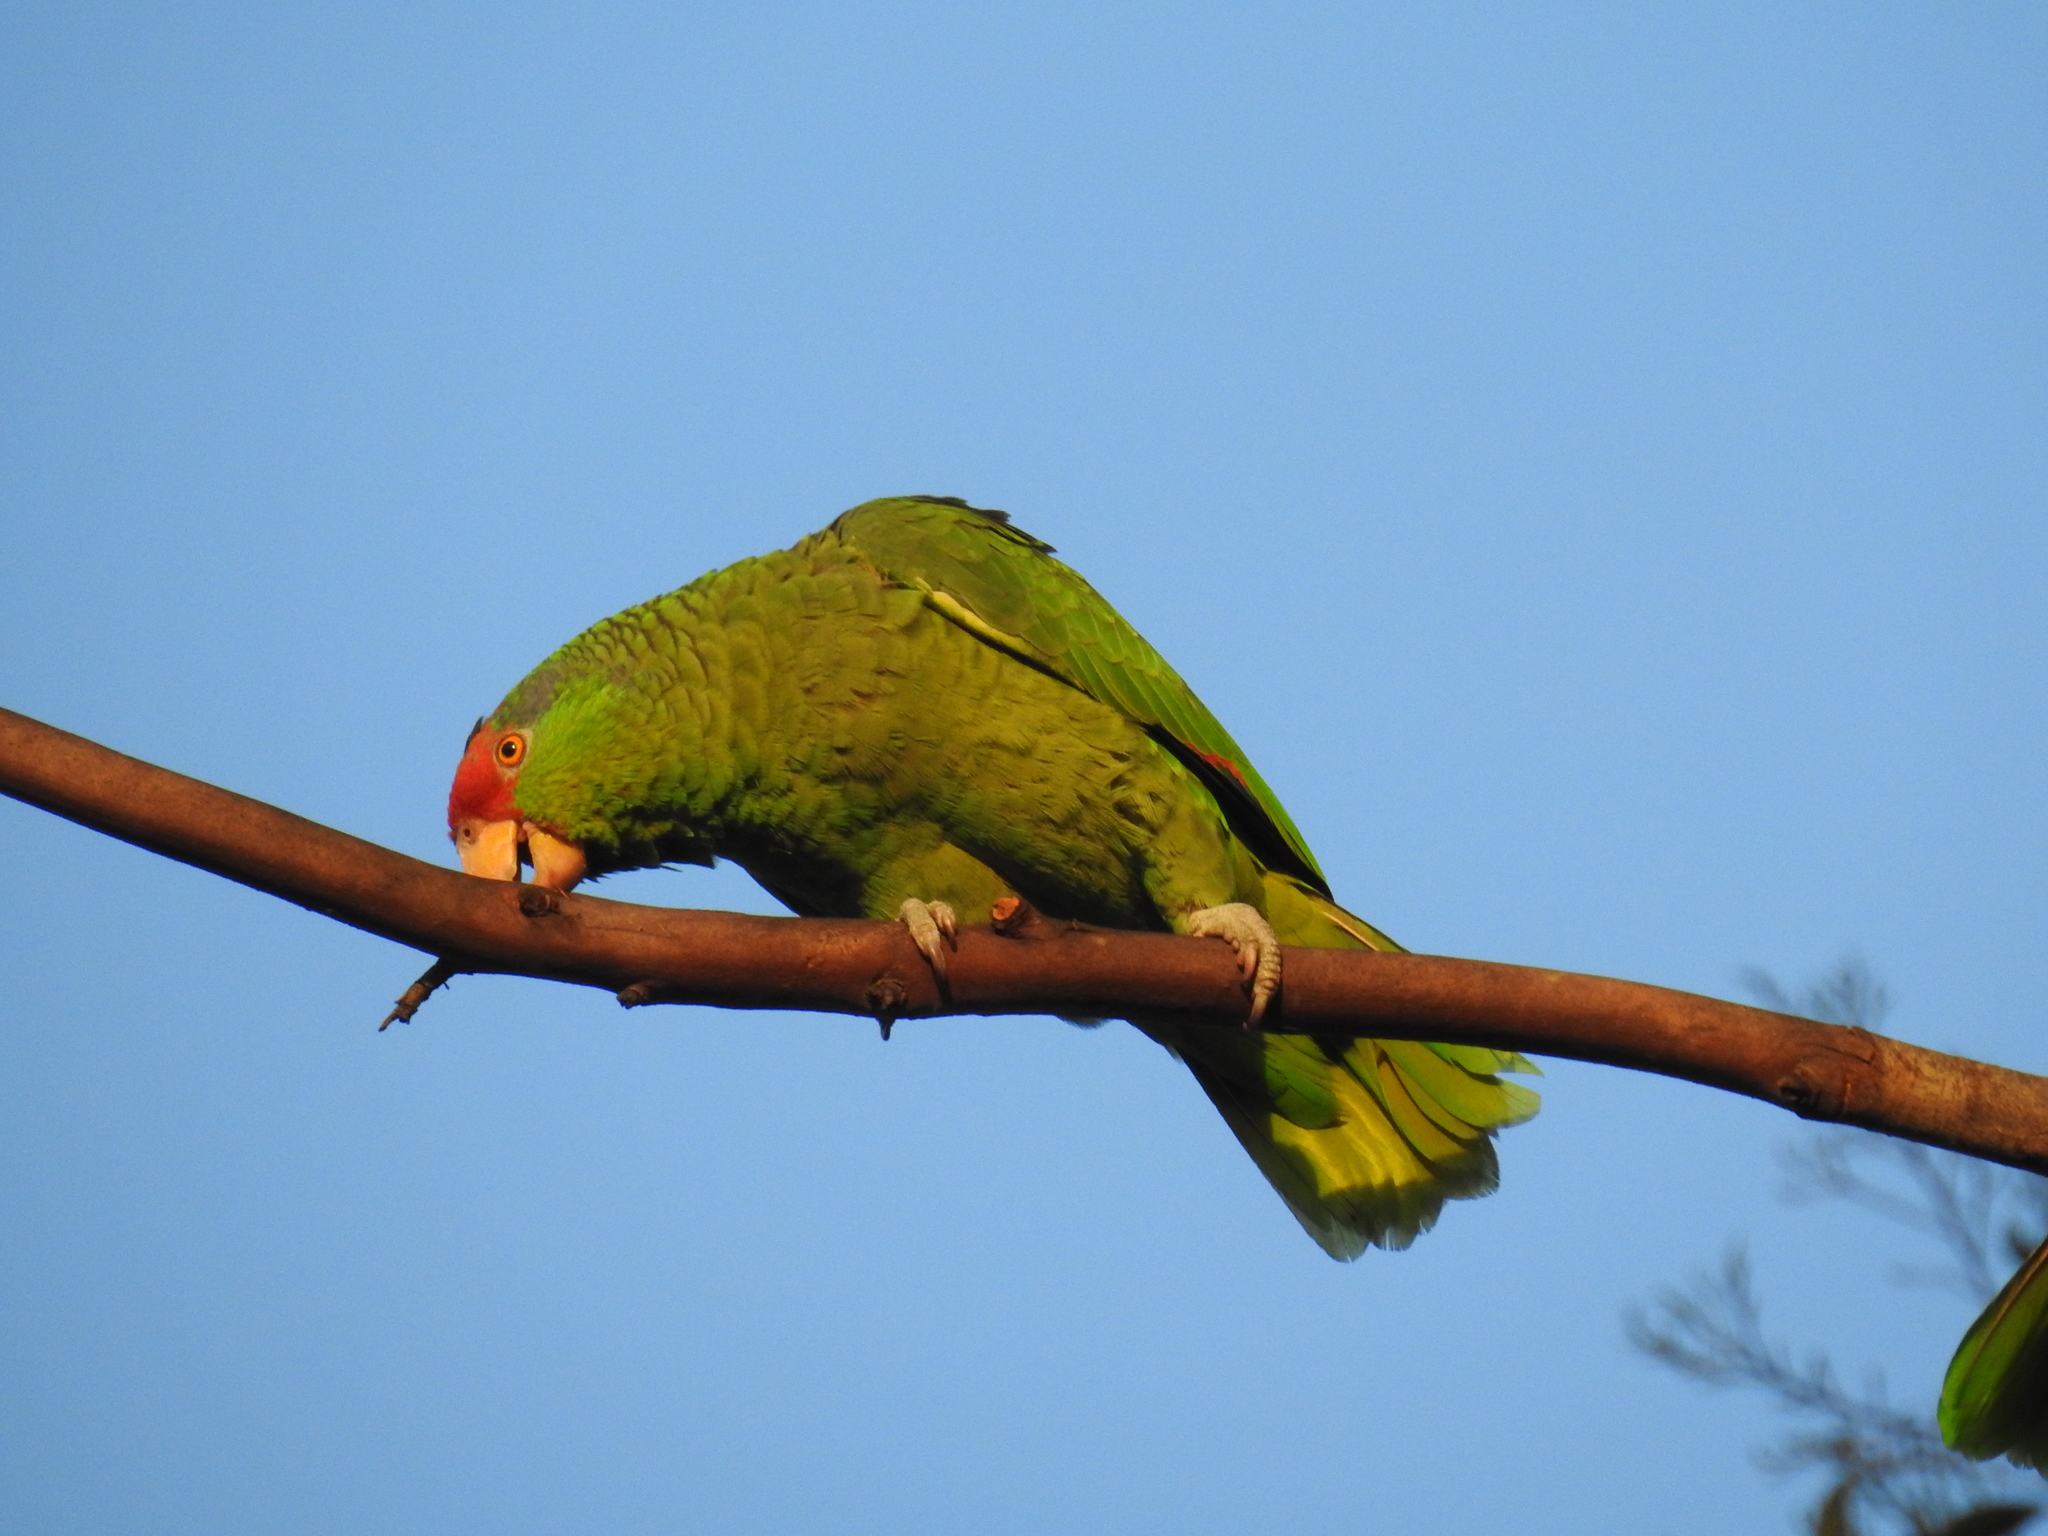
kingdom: Animalia
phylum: Chordata
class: Aves
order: Psittaciformes
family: Psittacidae
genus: Amazona
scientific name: Amazona viridigenalis
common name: Red-crowned amazon
